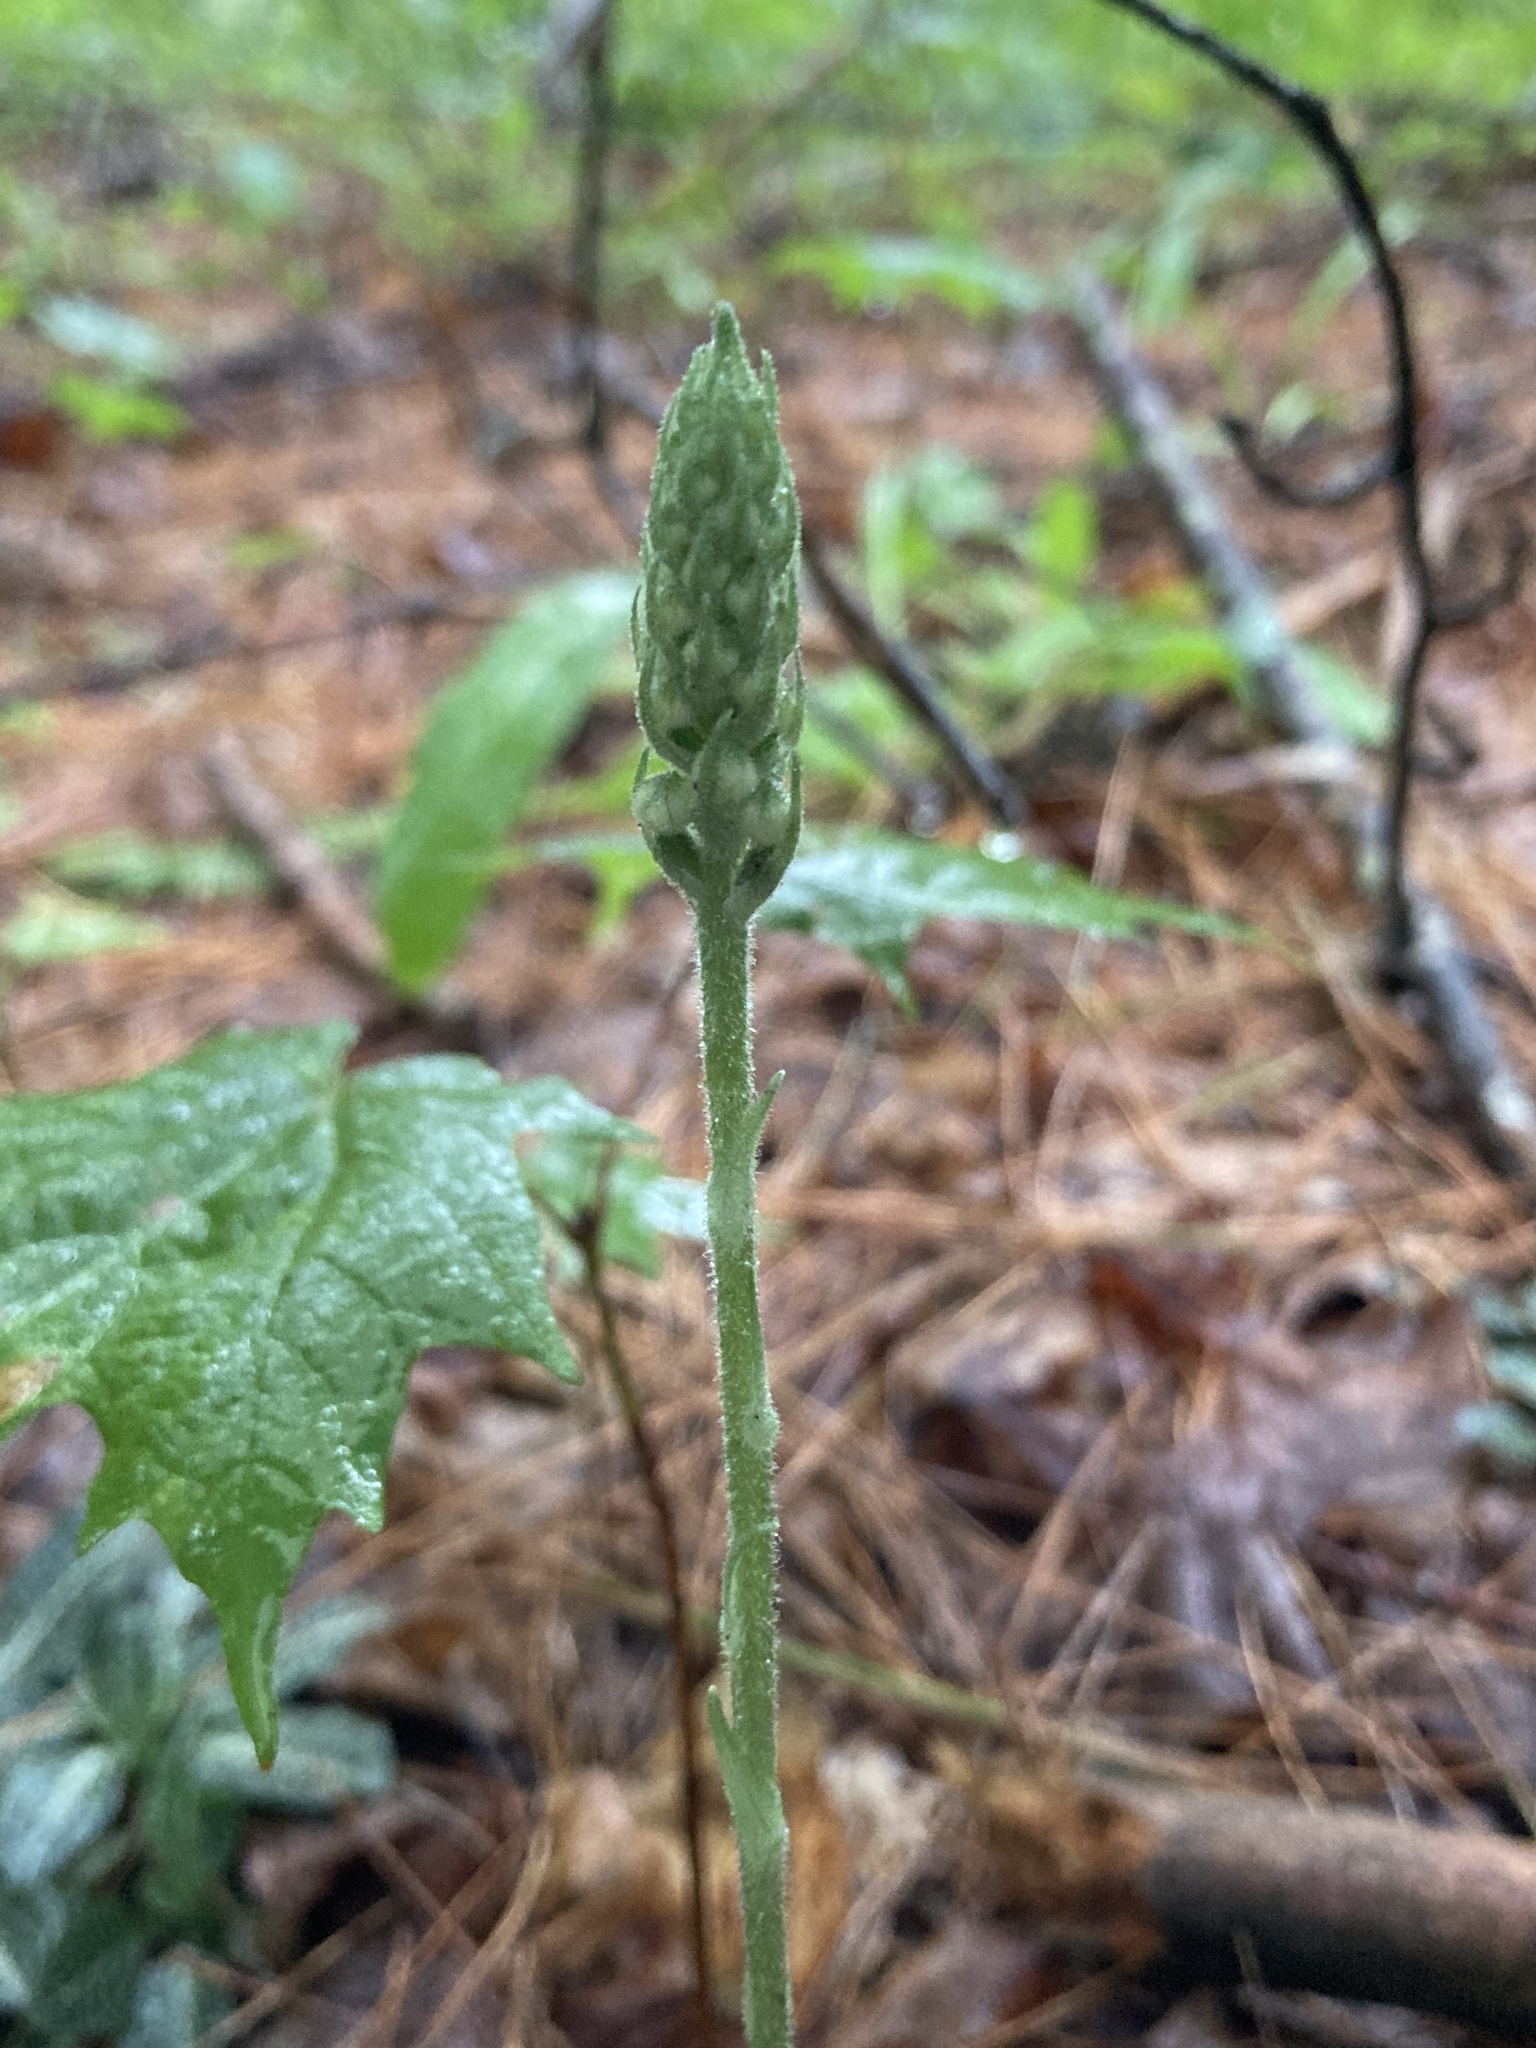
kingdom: Plantae
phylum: Tracheophyta
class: Liliopsida
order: Asparagales
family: Orchidaceae
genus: Goodyera
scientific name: Goodyera pubescens
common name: Downy rattlesnake-plantain
